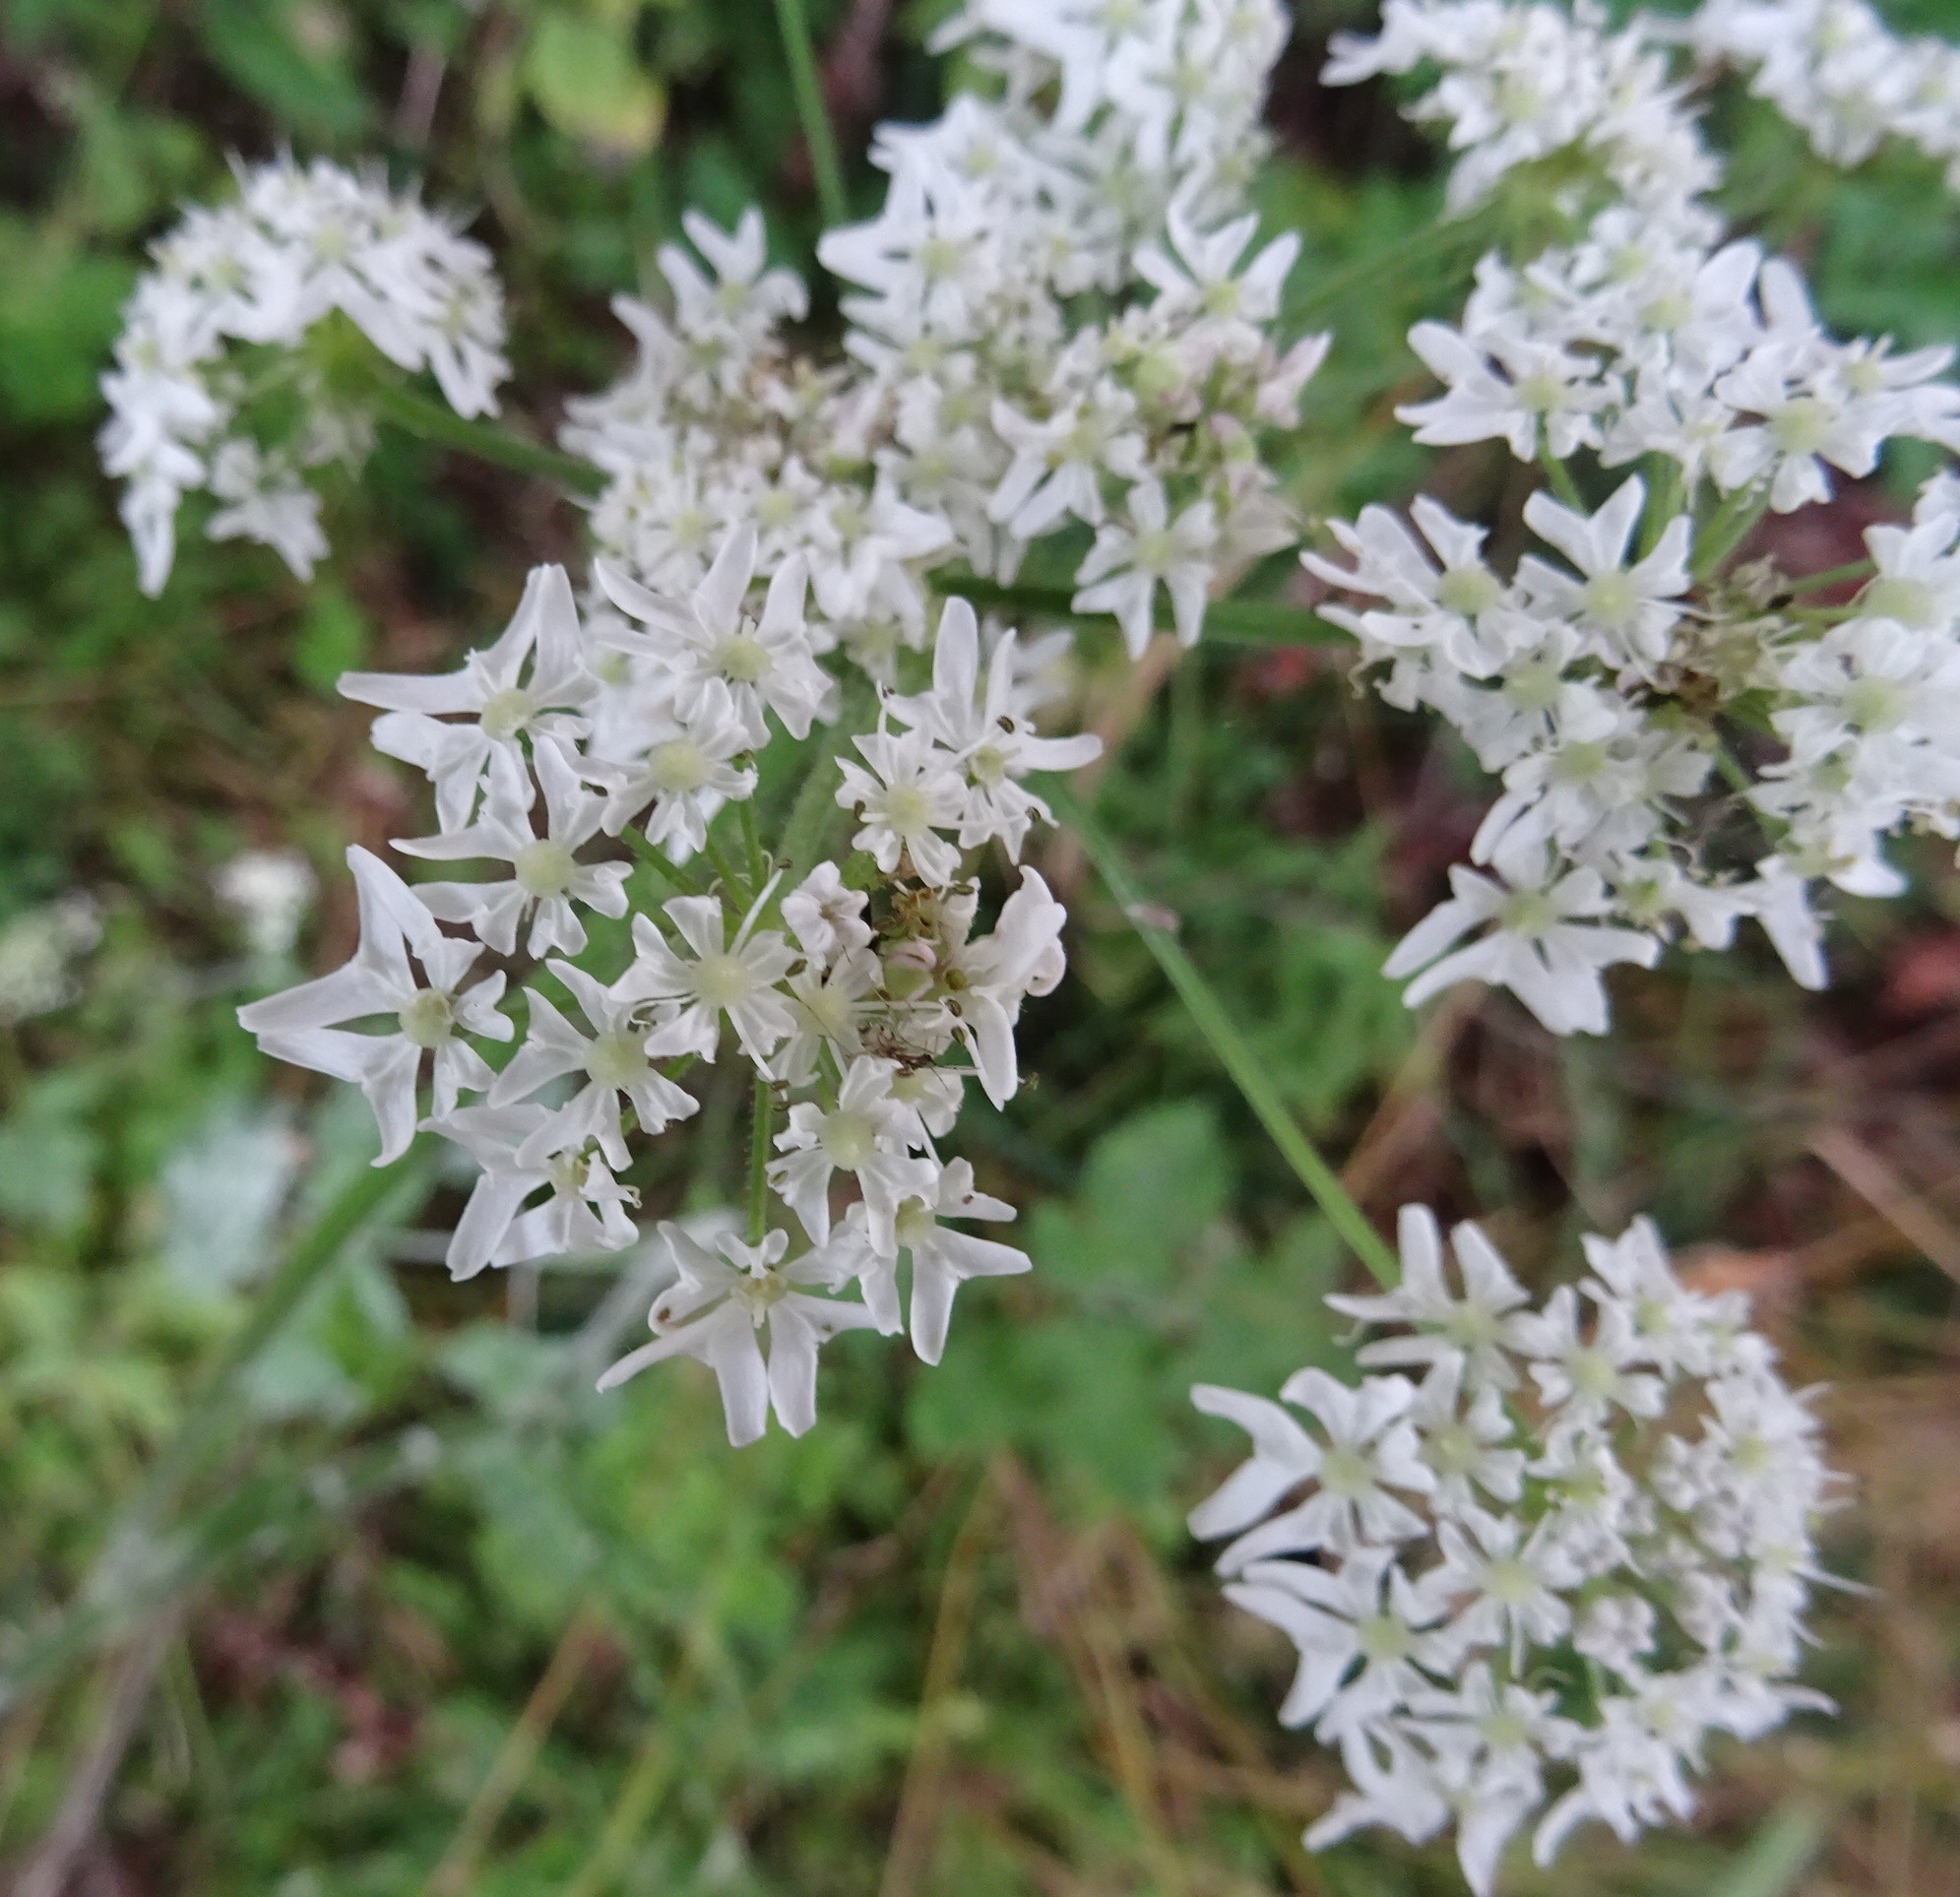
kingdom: Plantae
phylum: Tracheophyta
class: Magnoliopsida
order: Apiales
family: Apiaceae
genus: Heracleum
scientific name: Heracleum sphondylium
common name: Hogweed
